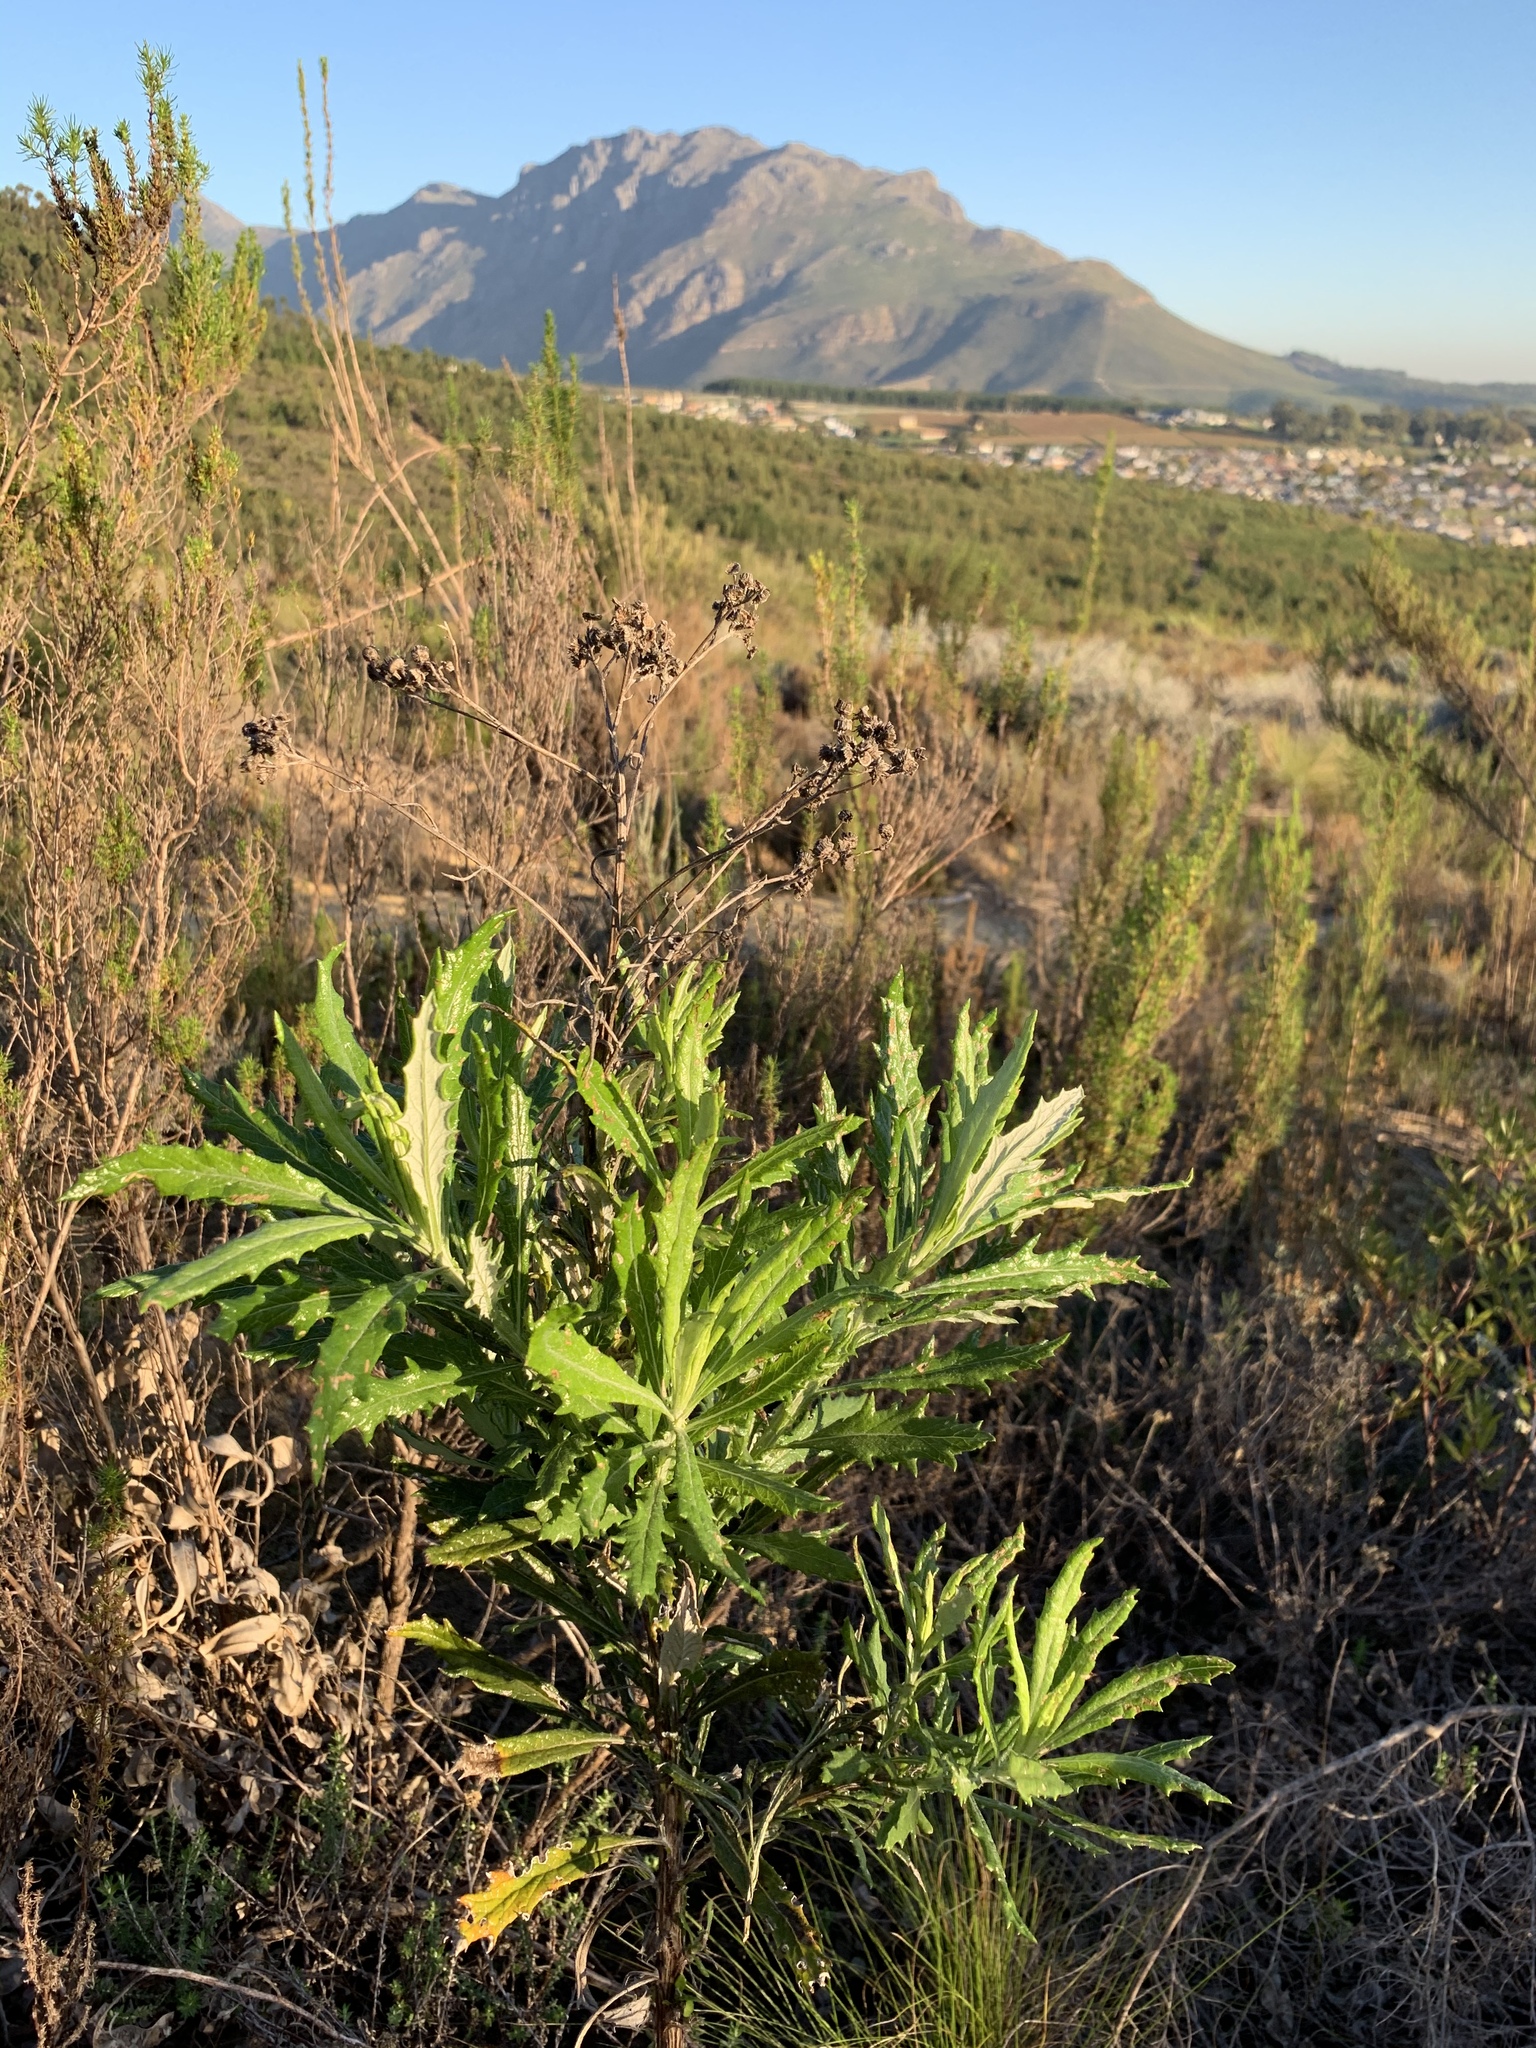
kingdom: Plantae
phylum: Tracheophyta
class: Magnoliopsida
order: Asterales
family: Asteraceae
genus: Senecio
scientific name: Senecio pterophorus
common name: Shoddy ragwort
